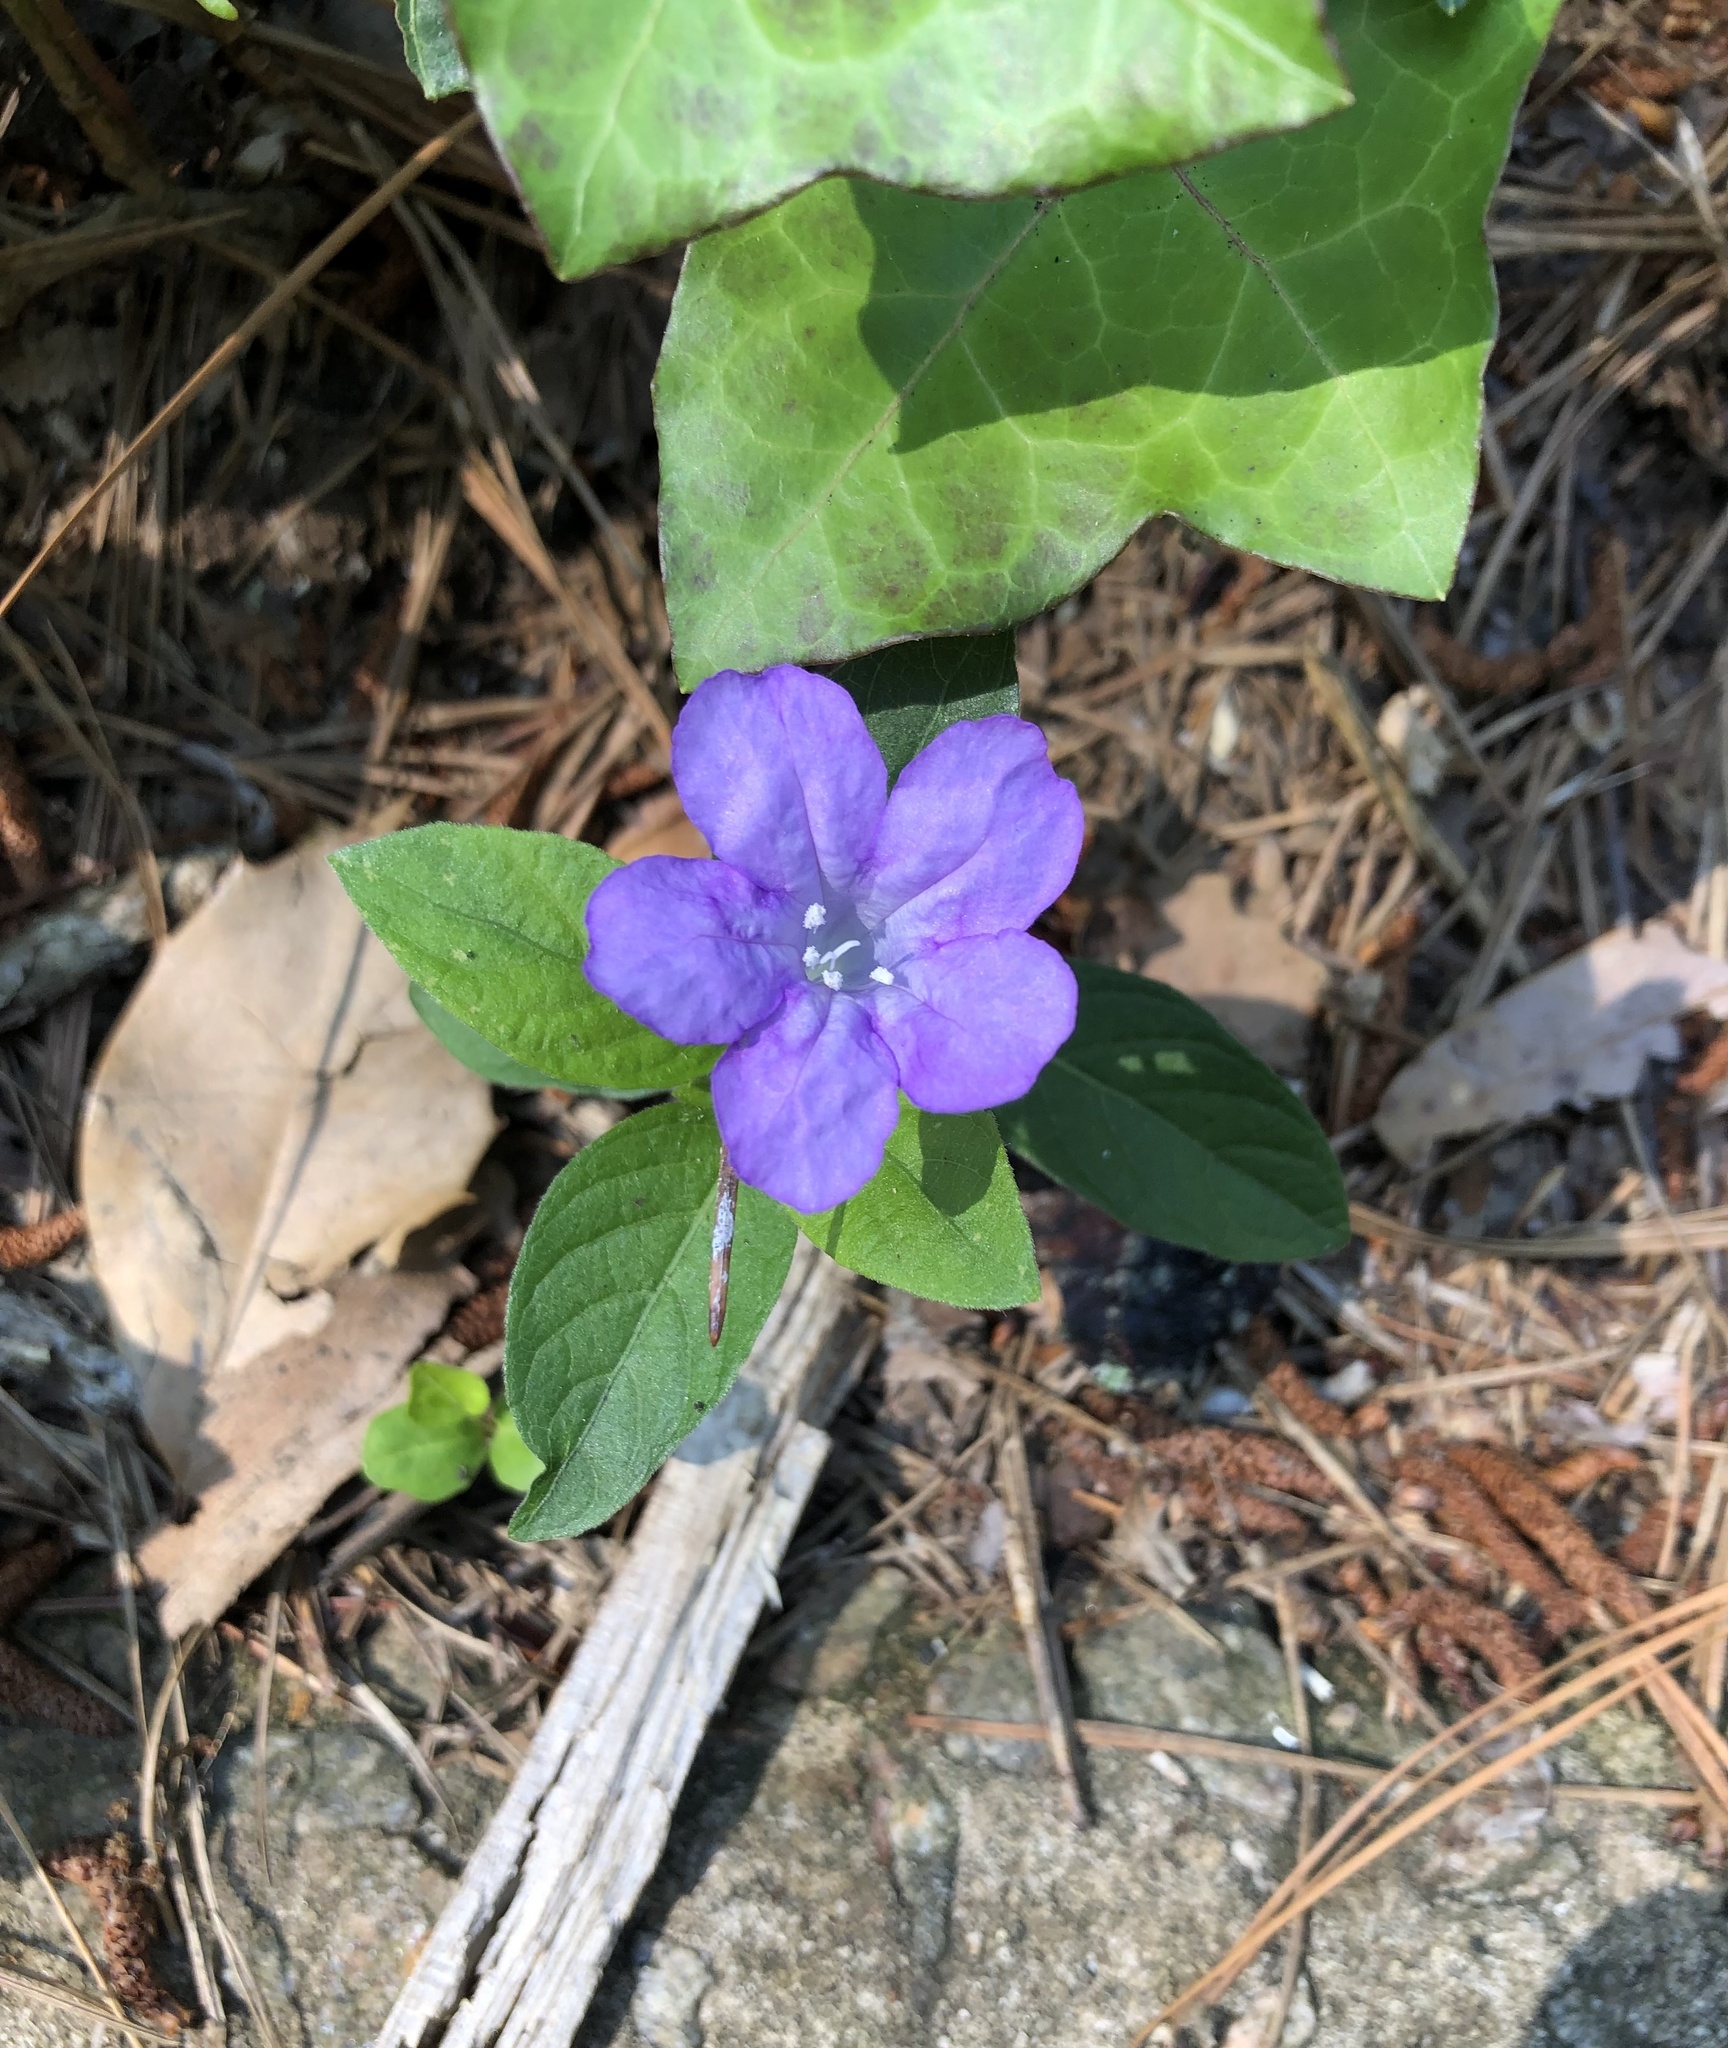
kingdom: Plantae
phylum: Tracheophyta
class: Magnoliopsida
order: Lamiales
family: Acanthaceae
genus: Ruellia
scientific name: Ruellia caroliniensis
